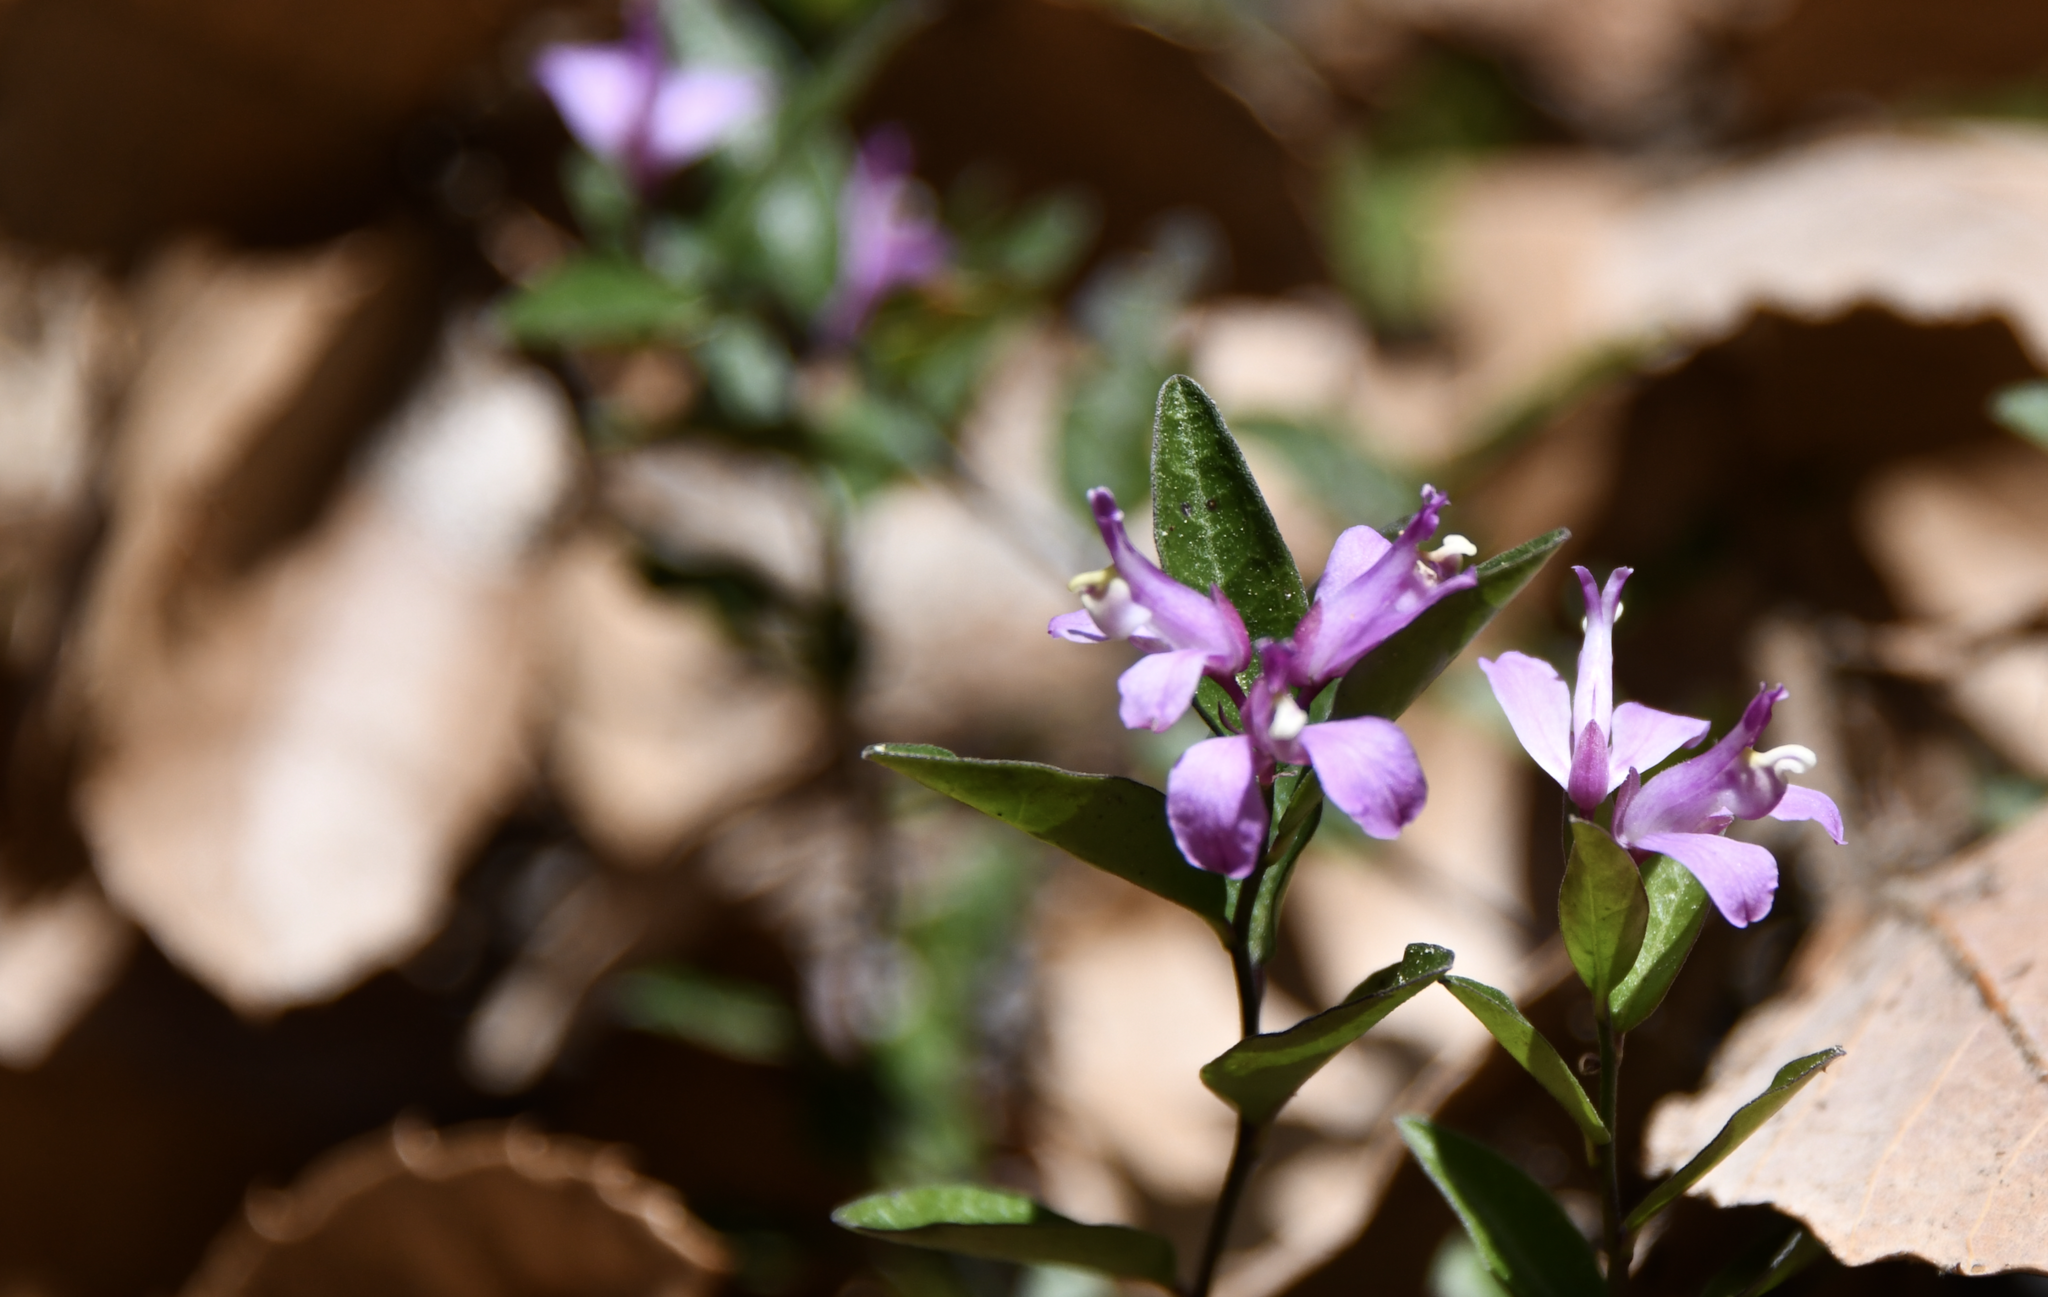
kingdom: Plantae
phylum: Tracheophyta
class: Magnoliopsida
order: Fabales
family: Polygalaceae
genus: Rhinotropis
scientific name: Rhinotropis californica
